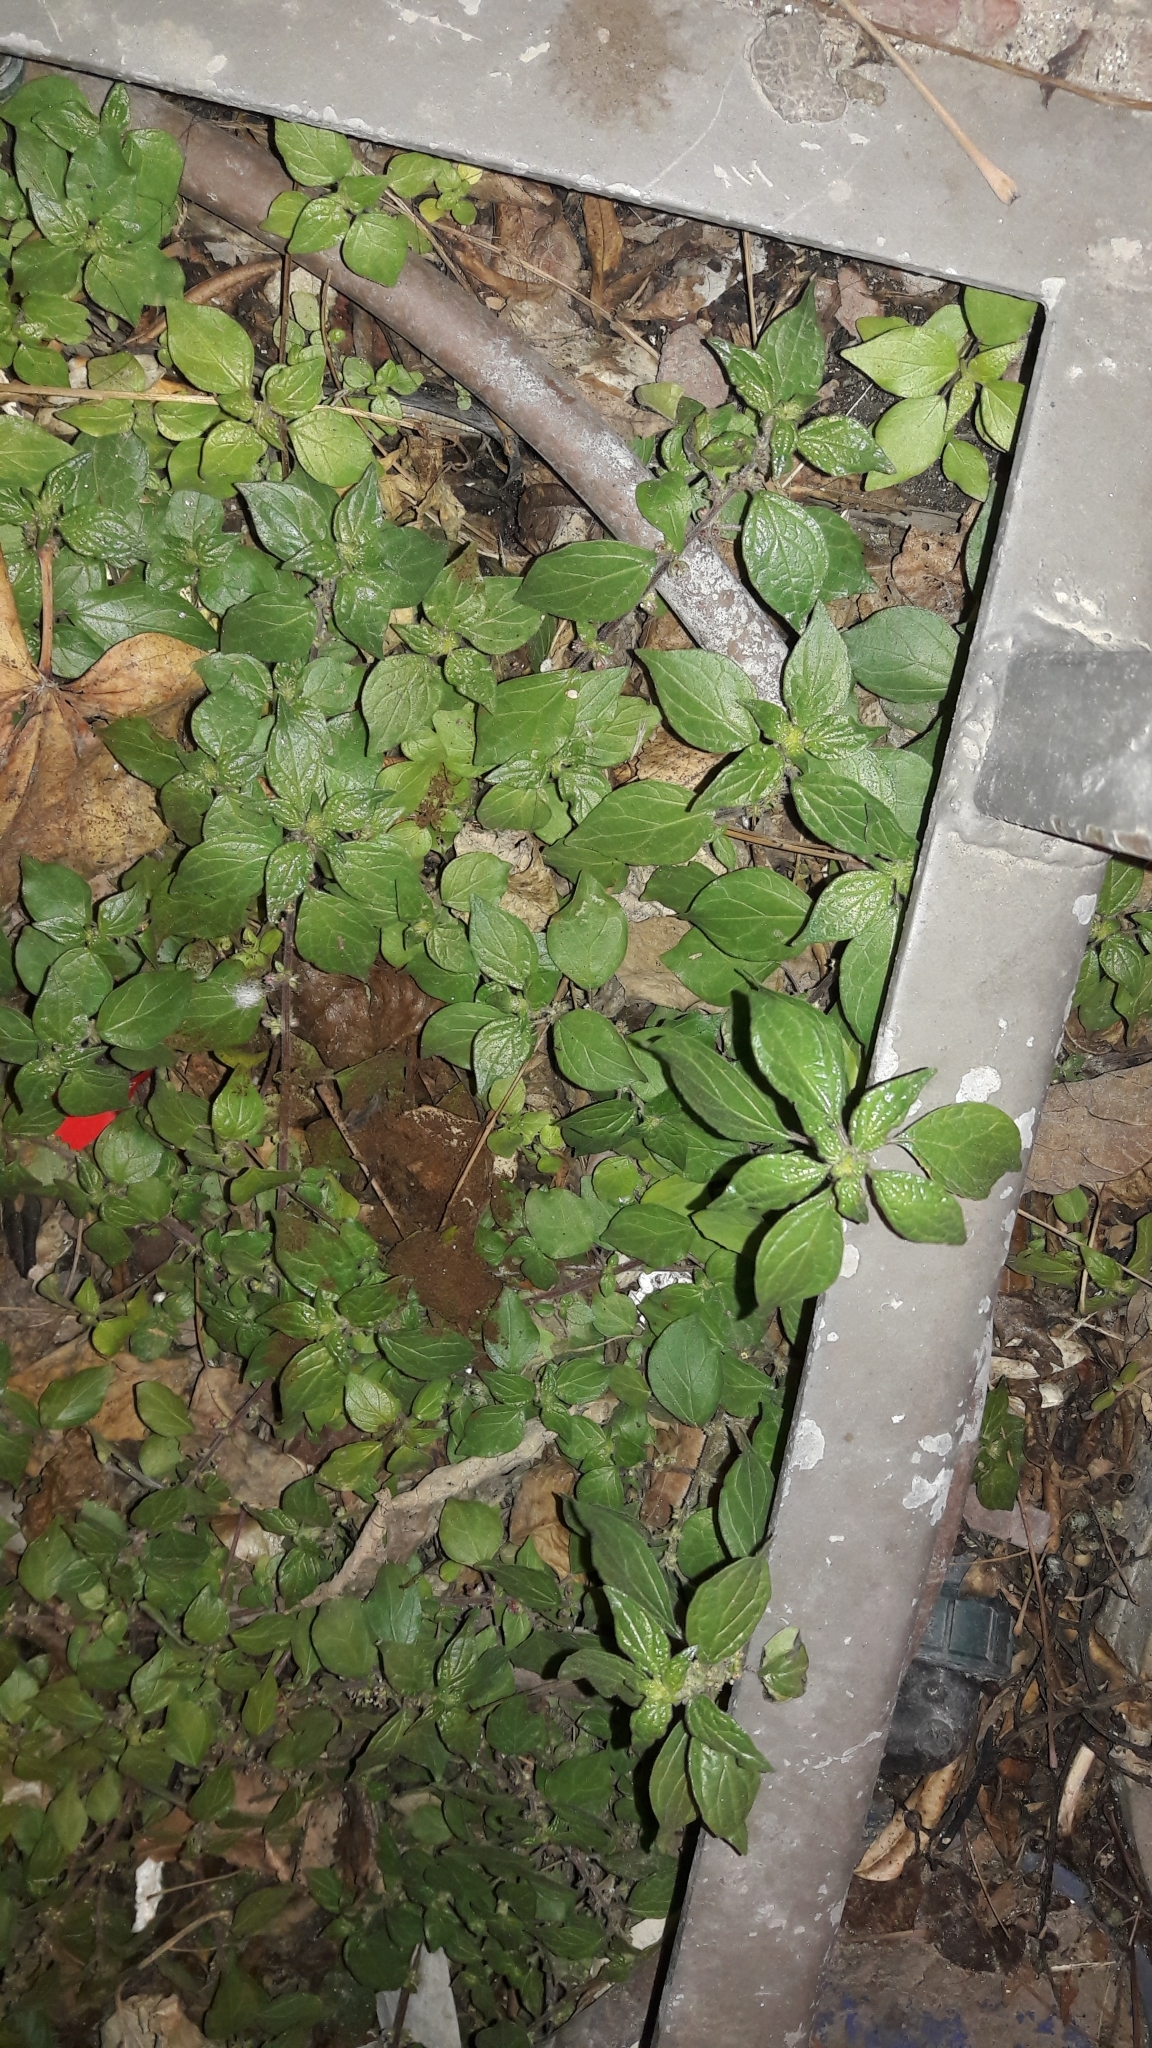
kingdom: Plantae
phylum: Tracheophyta
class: Magnoliopsida
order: Rosales
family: Urticaceae
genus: Parietaria
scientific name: Parietaria judaica
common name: Pellitory-of-the-wall
